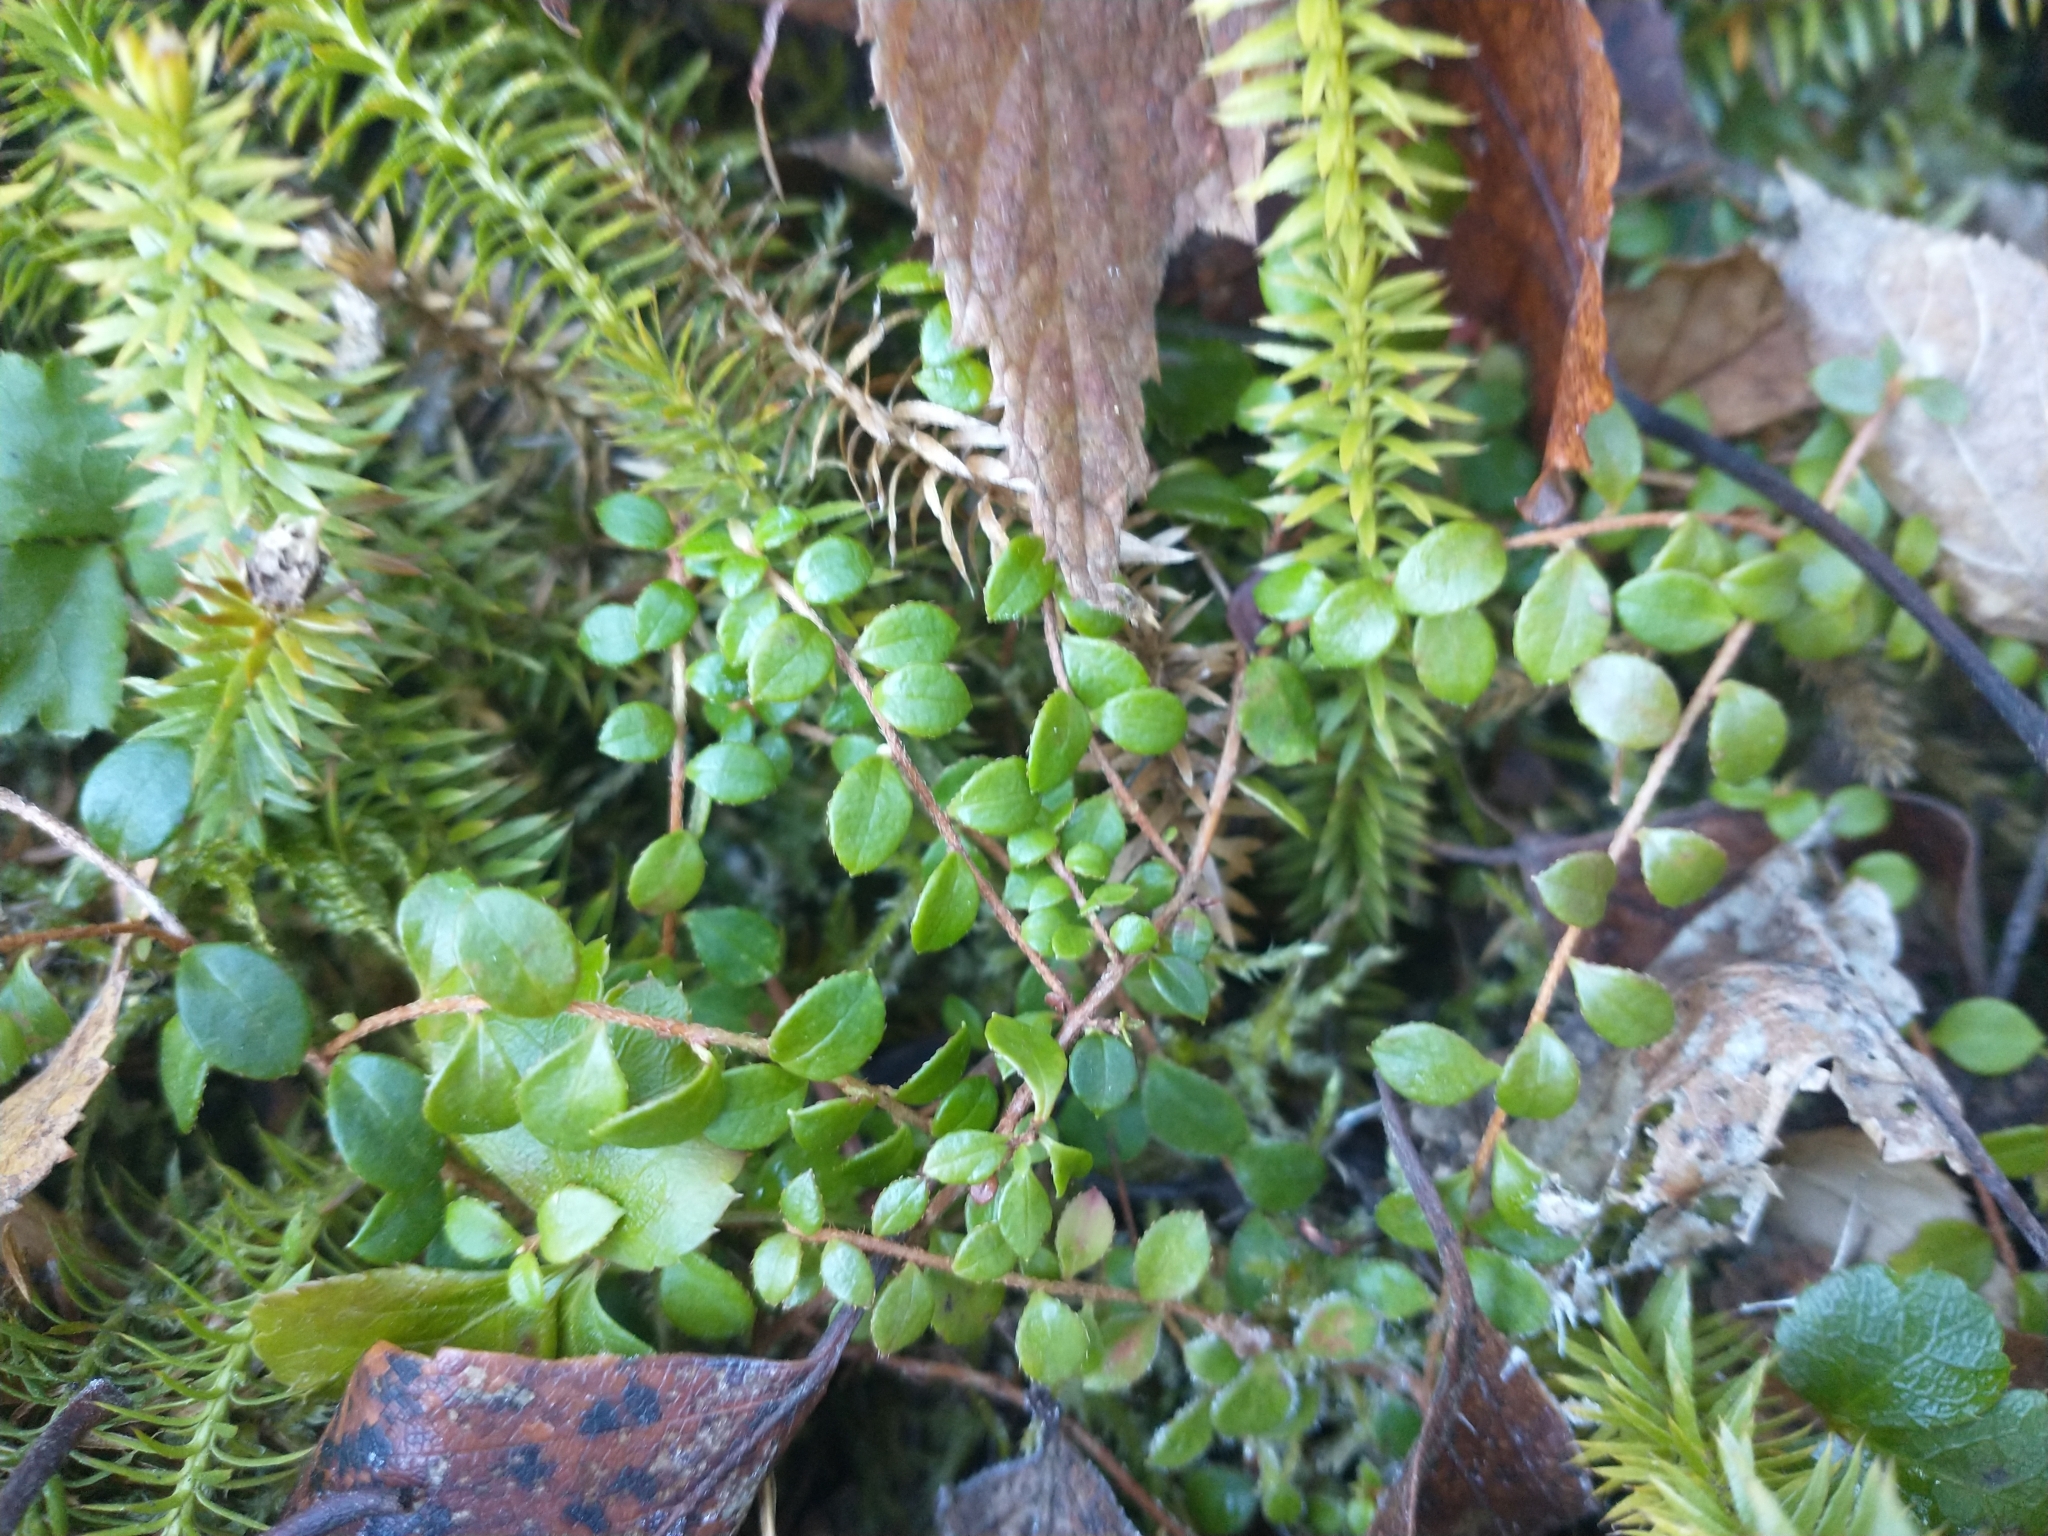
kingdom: Plantae
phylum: Tracheophyta
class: Magnoliopsida
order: Ericales
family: Ericaceae
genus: Gaultheria
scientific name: Gaultheria hispidula
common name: Cancer wintergreen
